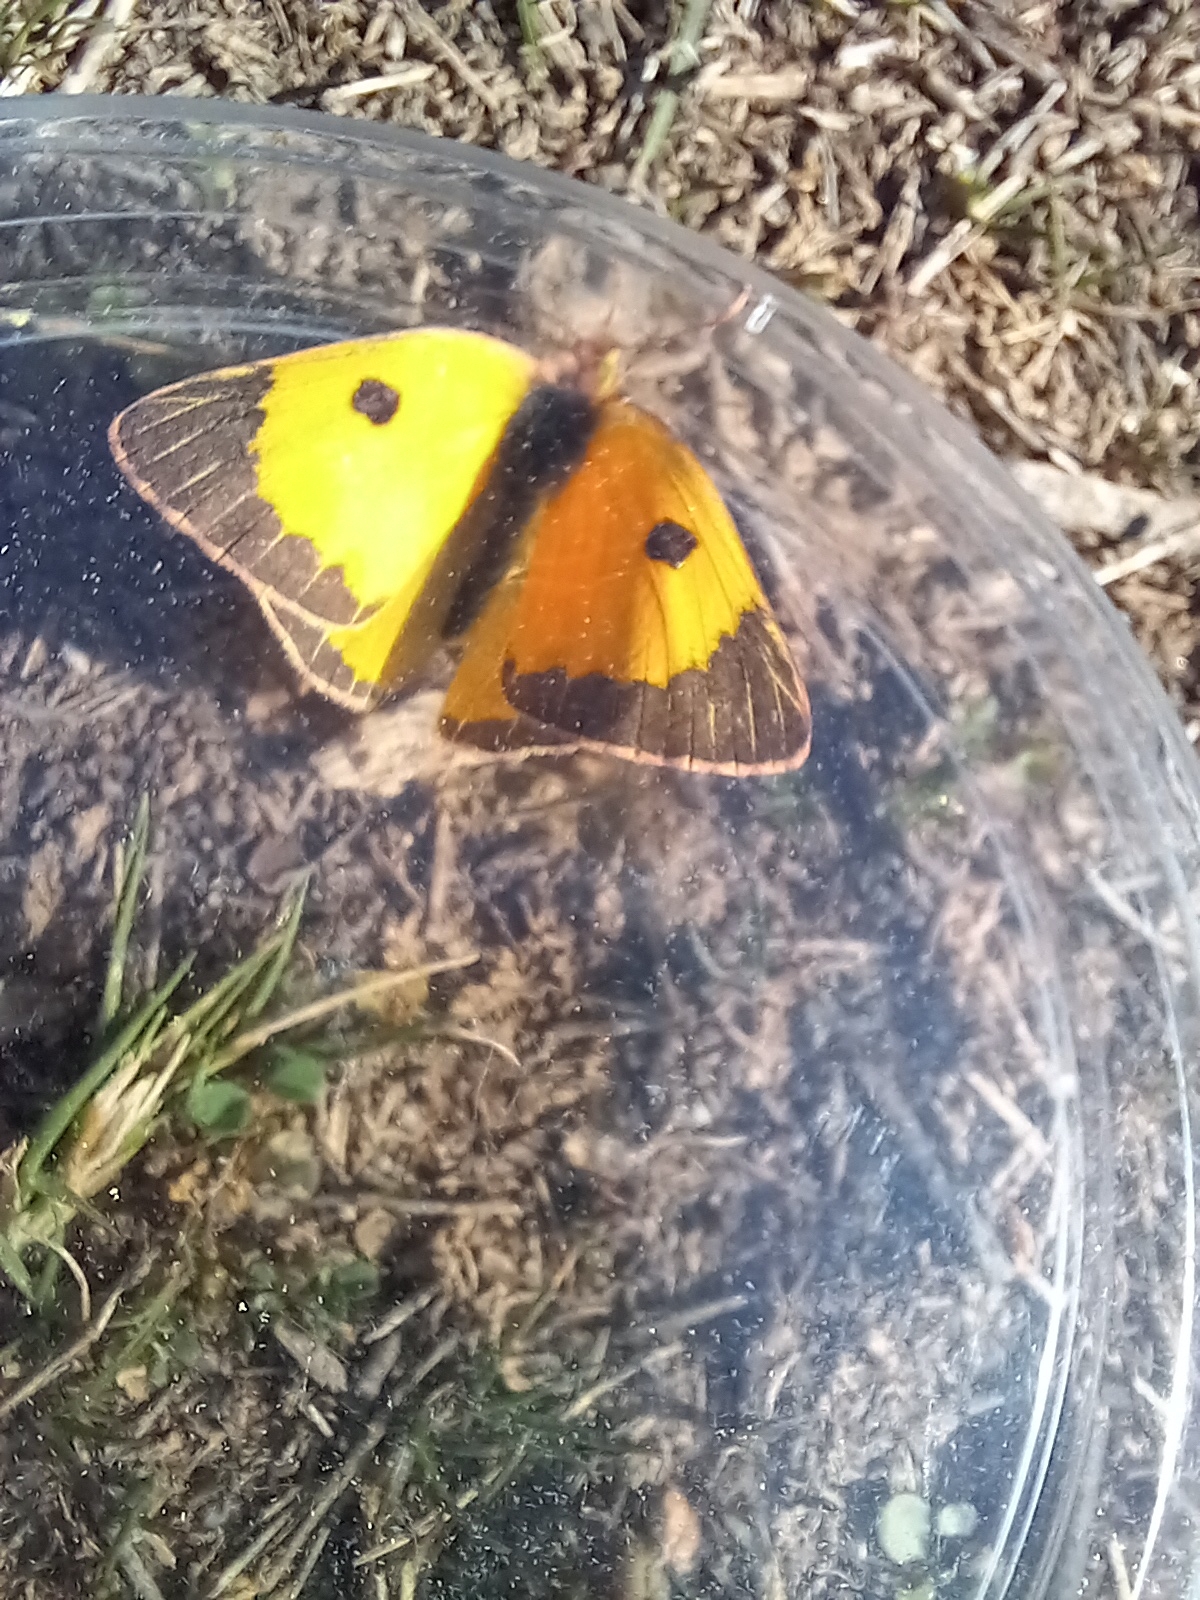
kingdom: Animalia
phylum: Arthropoda
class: Insecta
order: Lepidoptera
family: Pieridae
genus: Colias
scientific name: Colias croceus
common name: Clouded yellow
